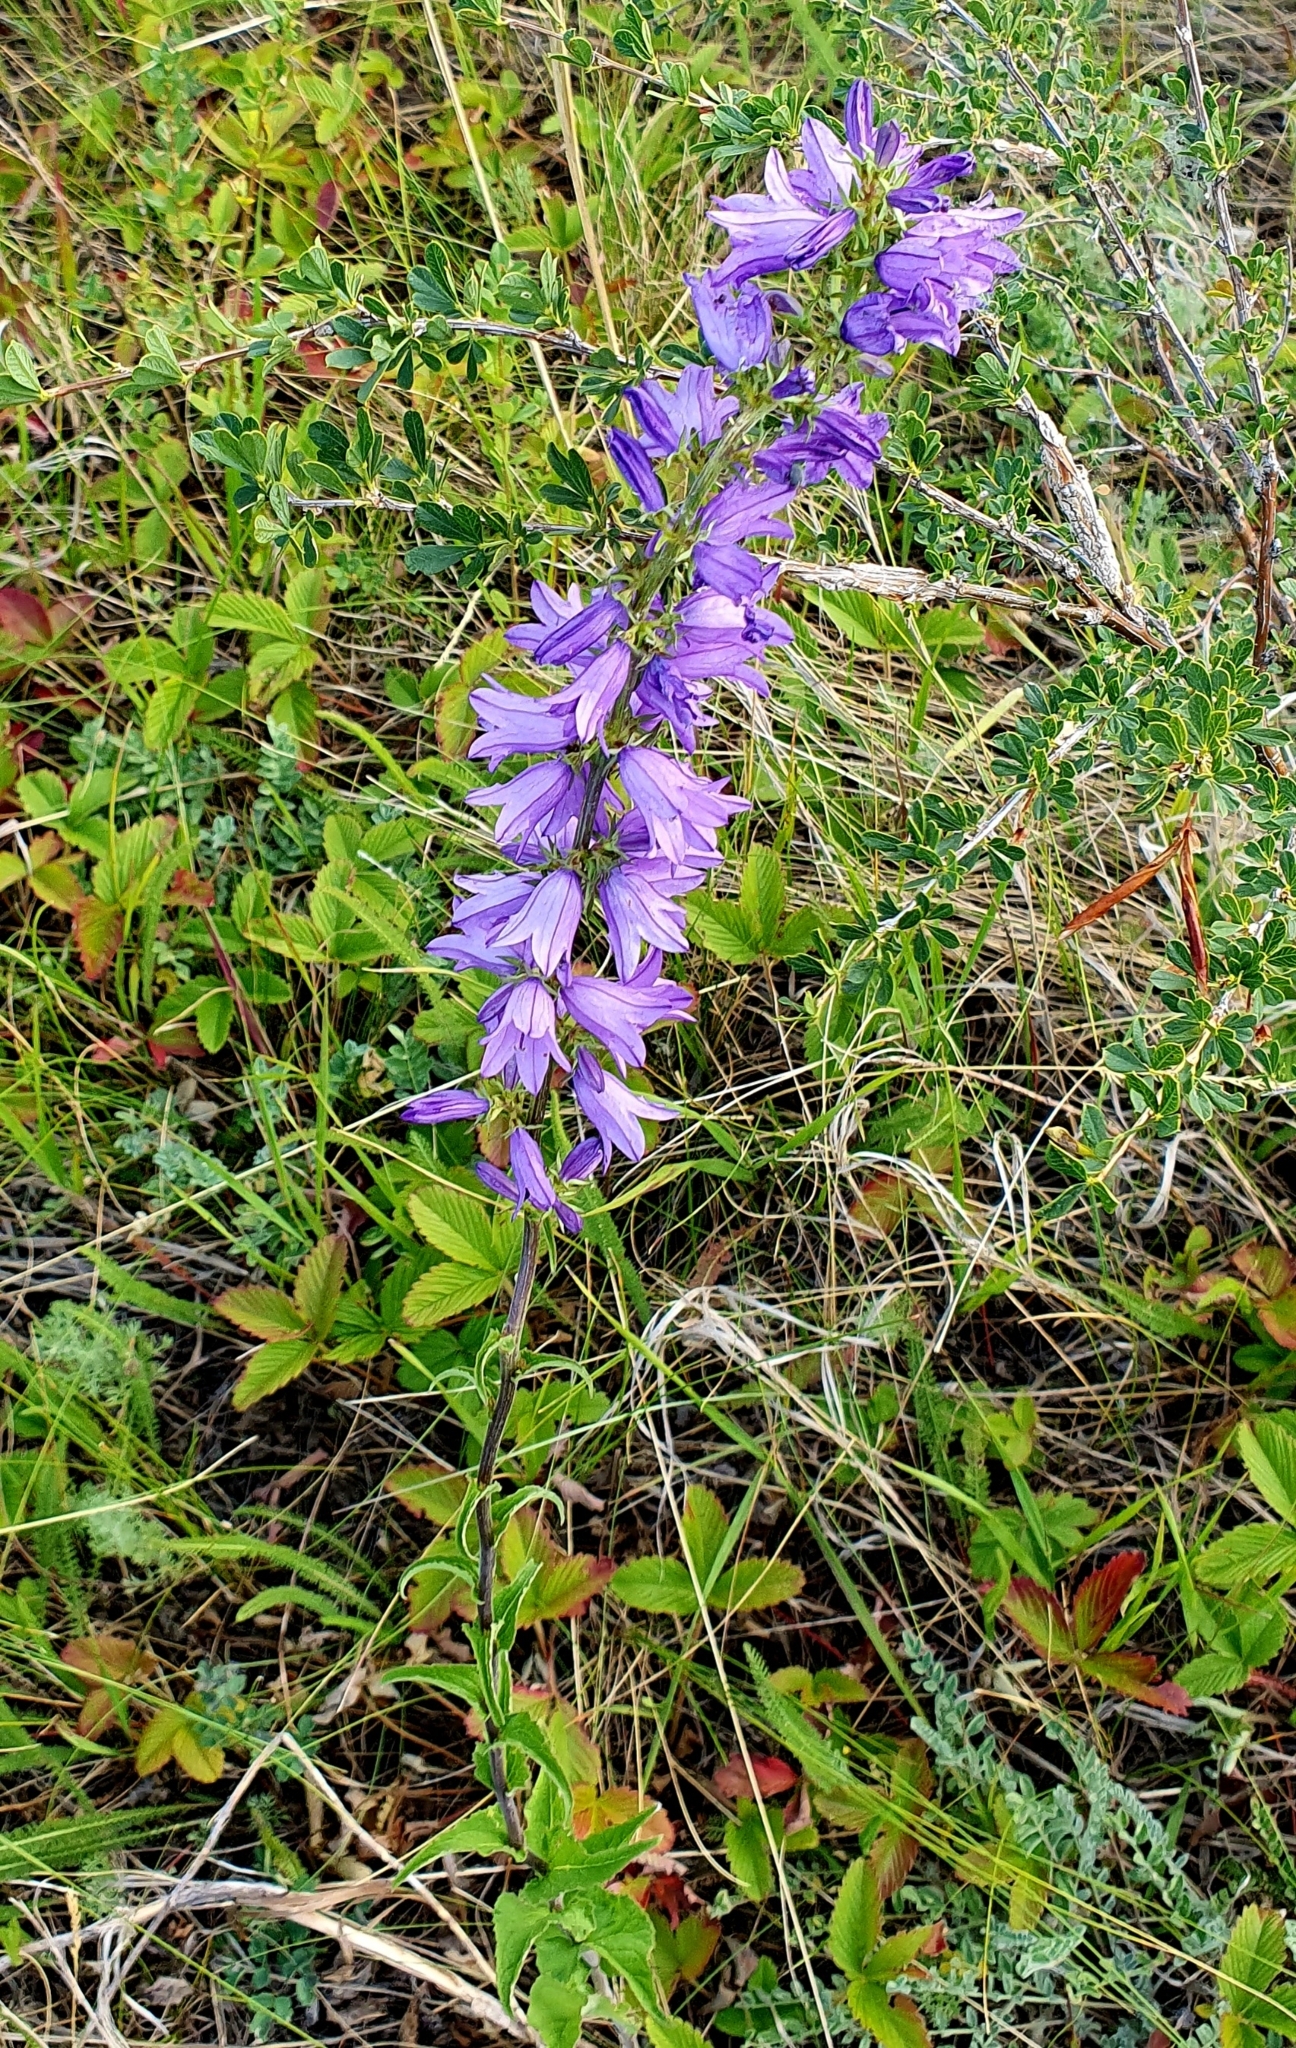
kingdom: Plantae
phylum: Tracheophyta
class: Magnoliopsida
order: Asterales
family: Campanulaceae
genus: Campanula
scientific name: Campanula bononiensis
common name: Pale bellflower
